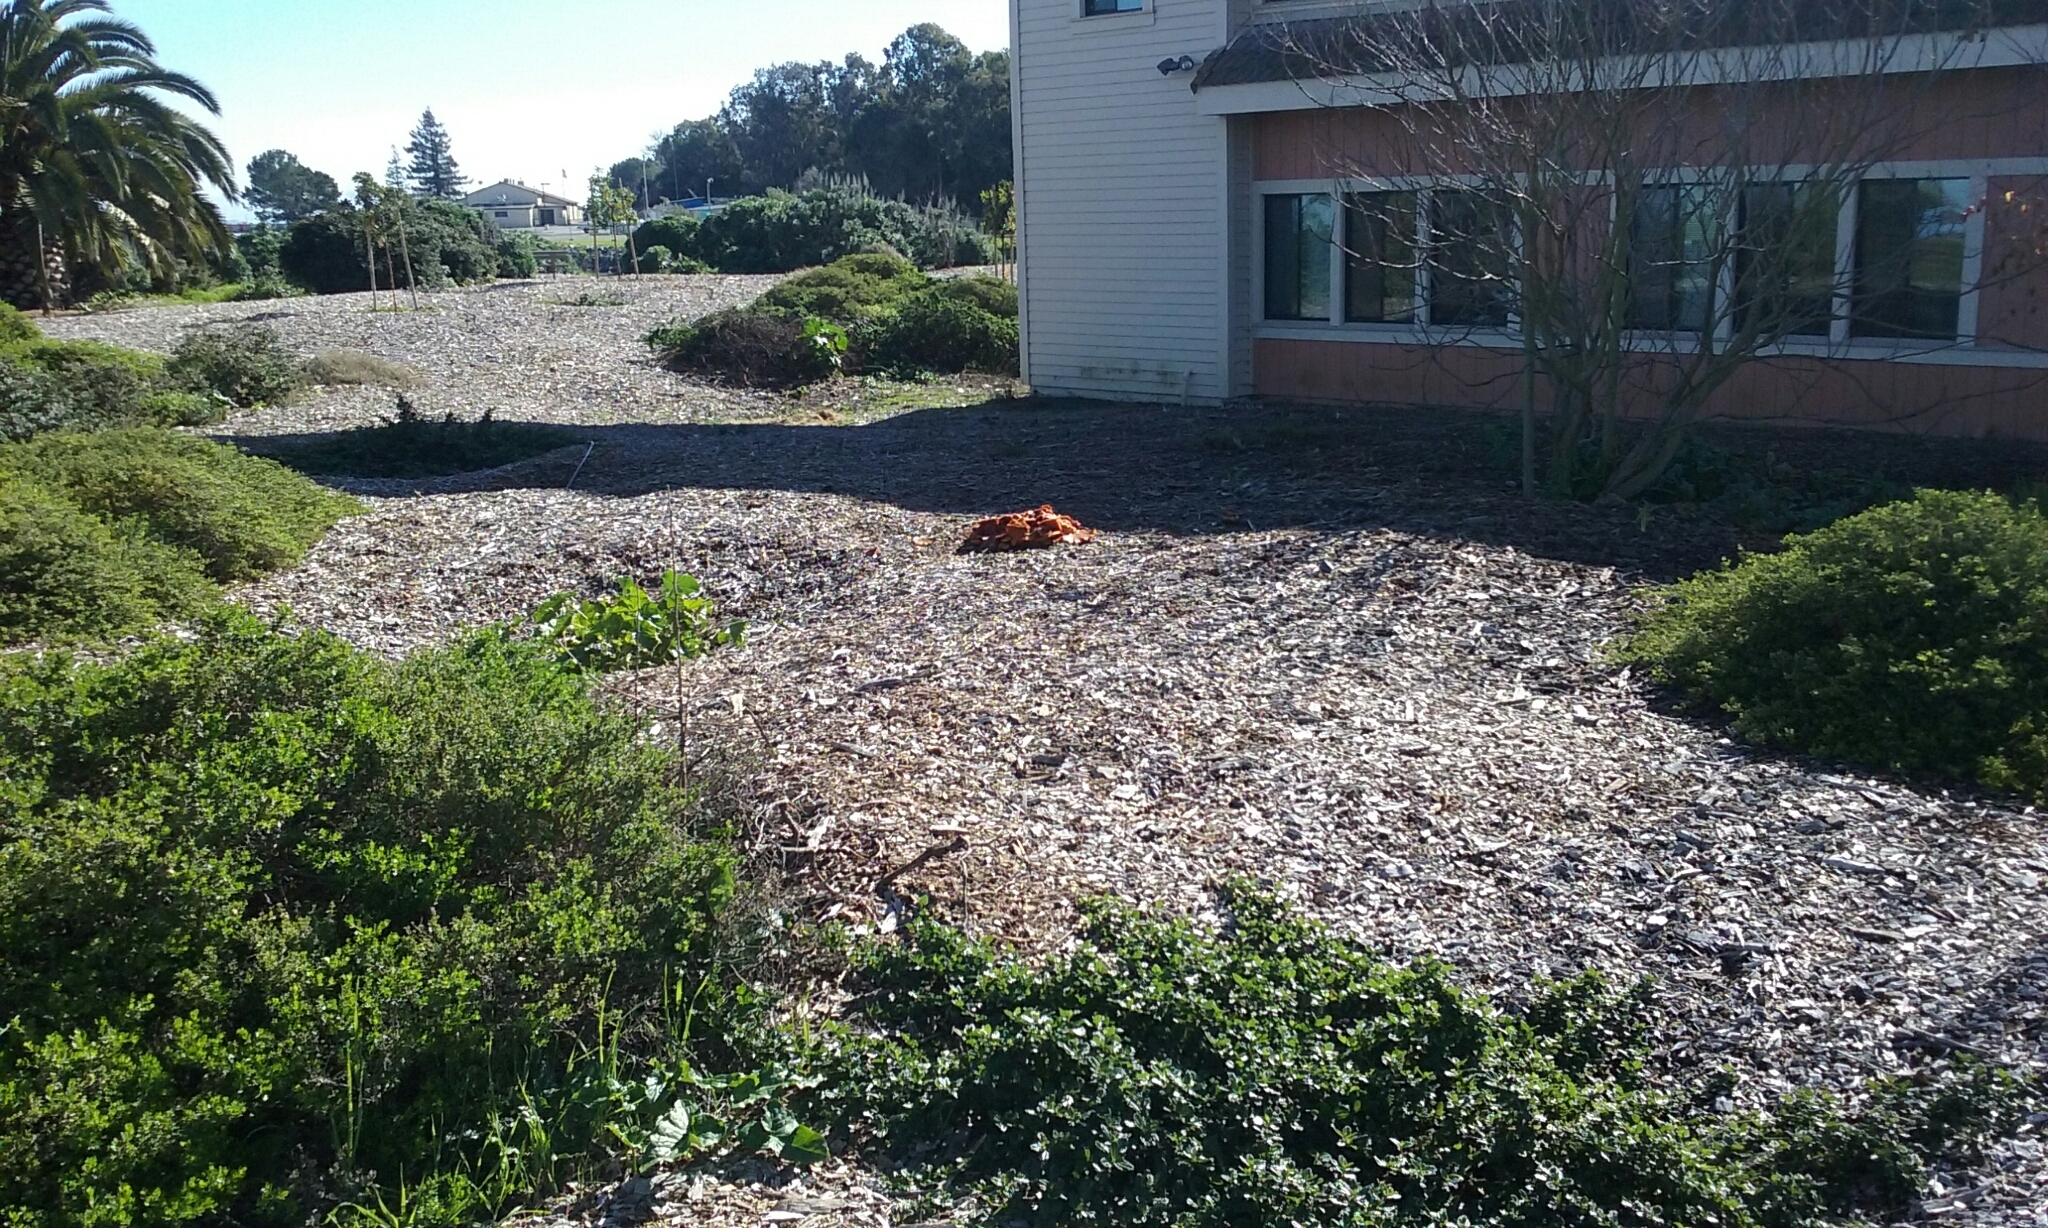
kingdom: Fungi
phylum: Basidiomycota
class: Agaricomycetes
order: Agaricales
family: Hymenogastraceae
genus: Gymnopilus
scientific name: Gymnopilus luteofolius
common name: Yellow-gilled gymnopilus
